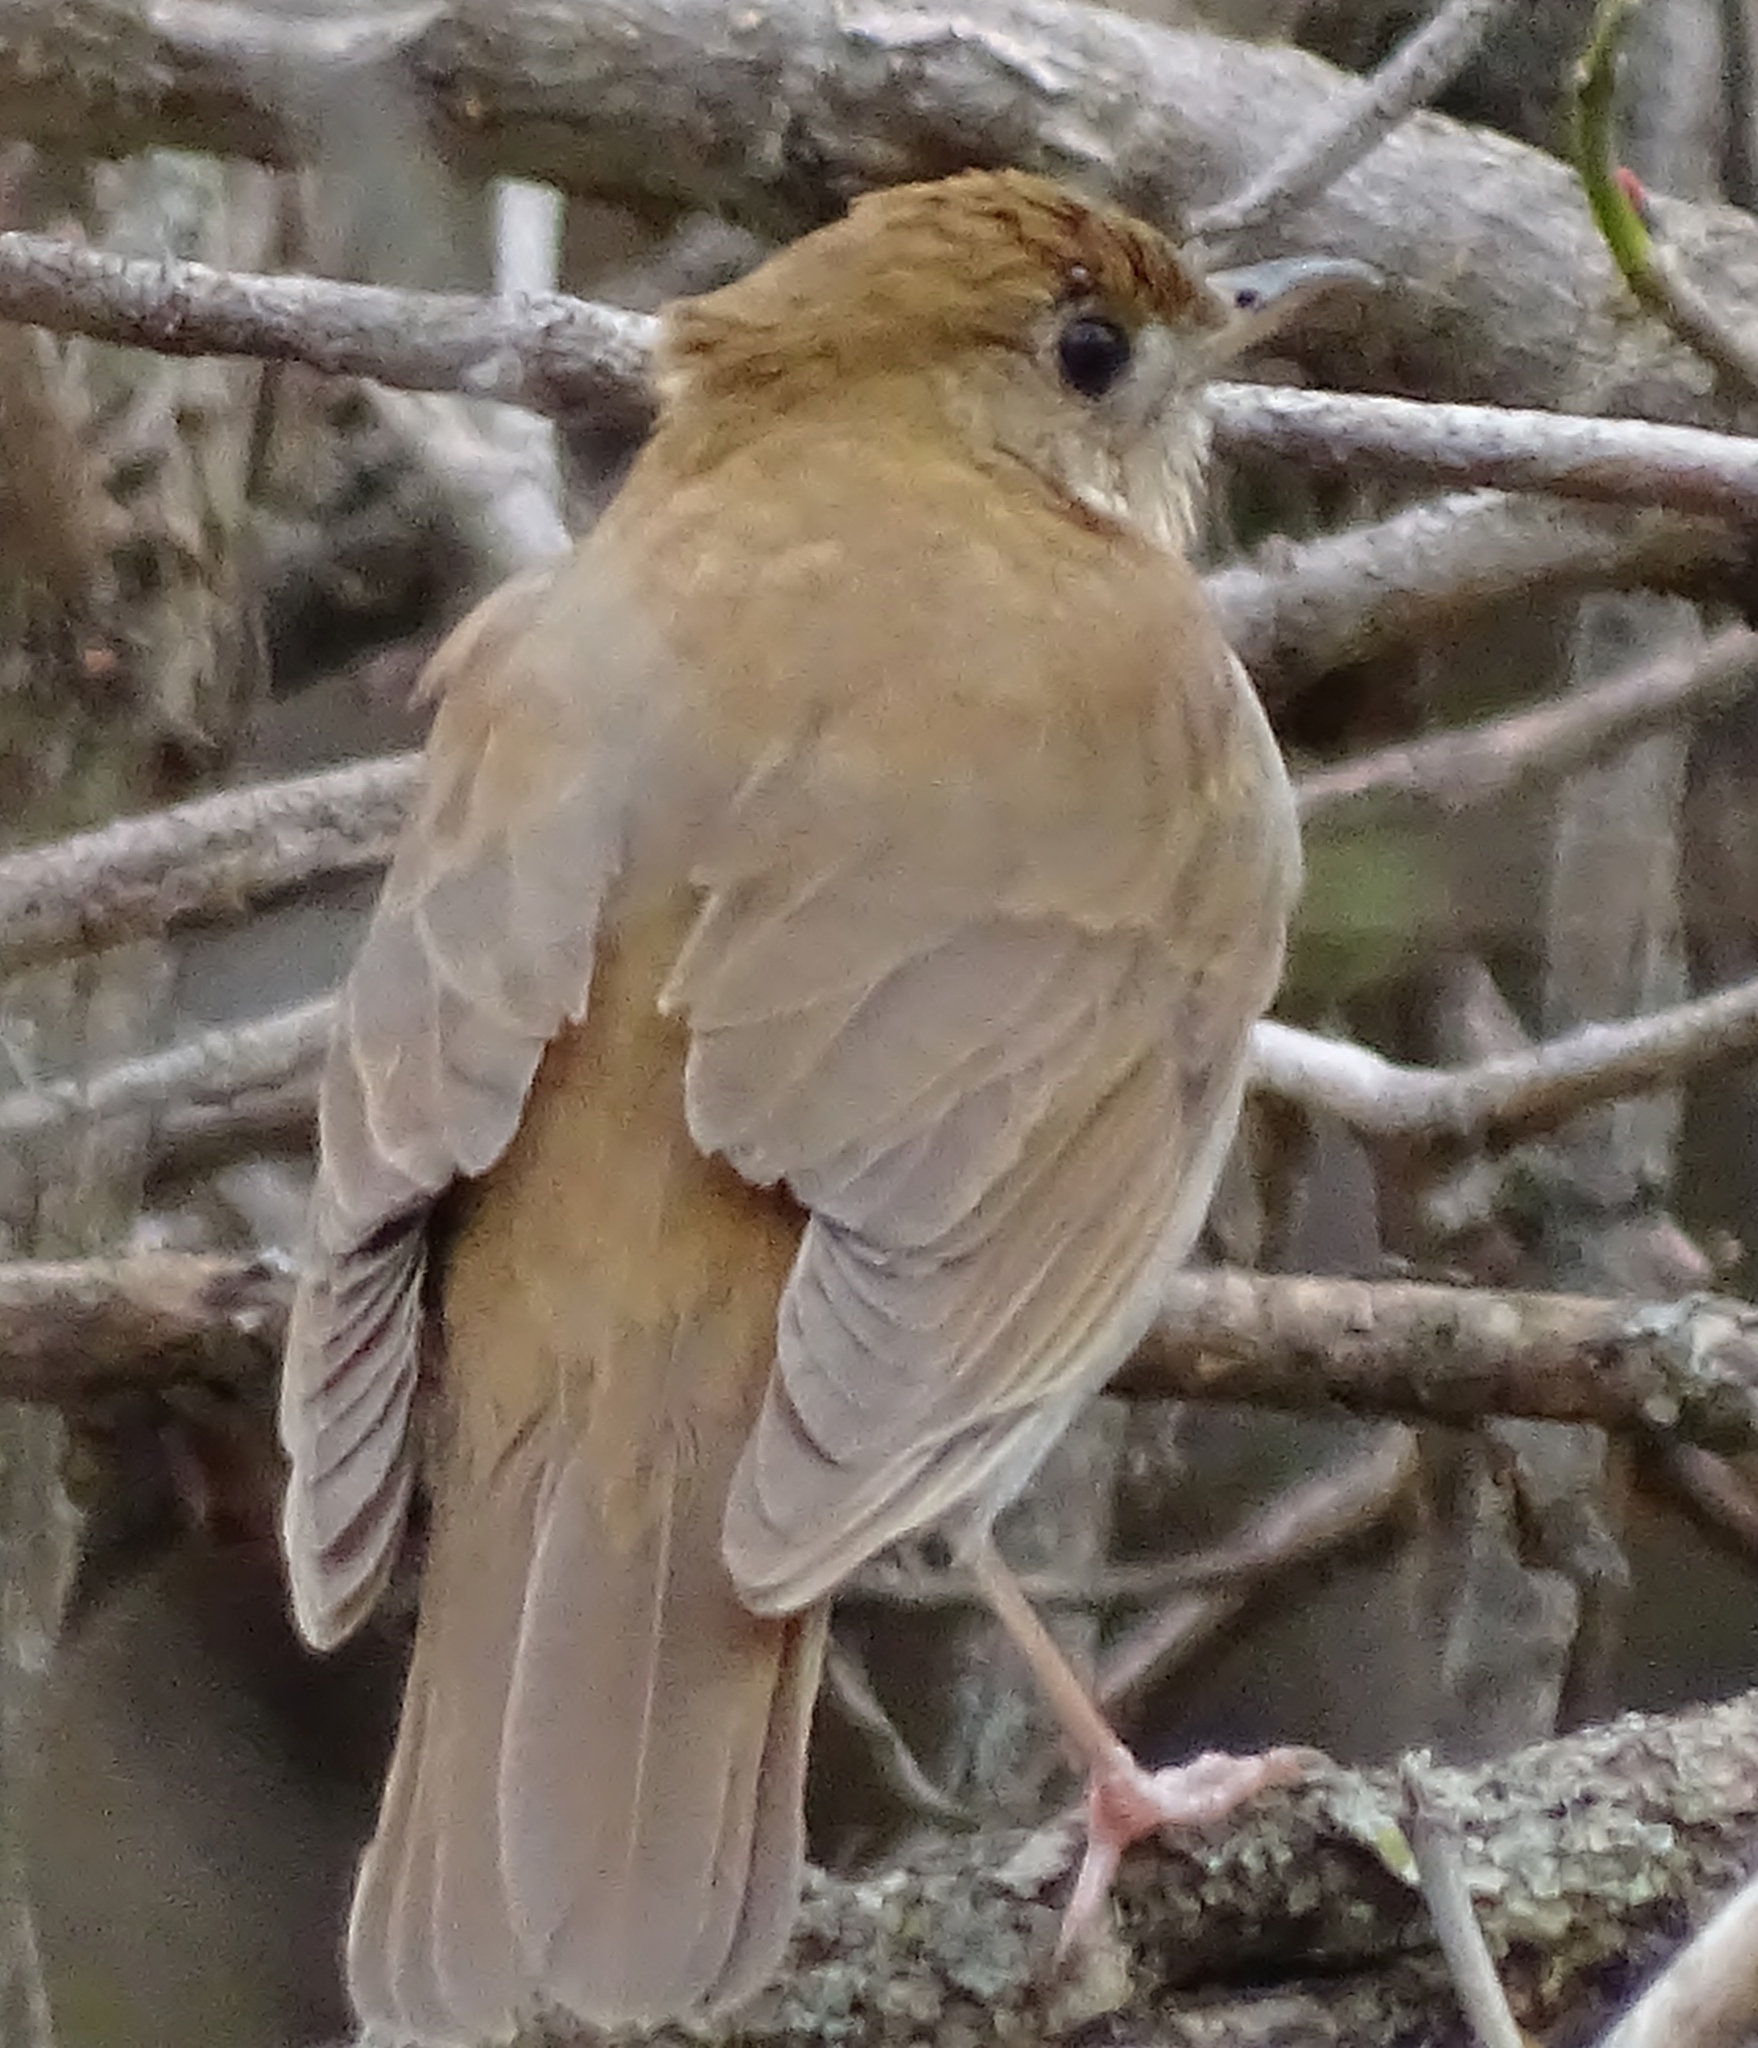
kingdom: Animalia
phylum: Chordata
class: Aves
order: Passeriformes
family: Turdidae
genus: Catharus
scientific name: Catharus fuscescens
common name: Veery
